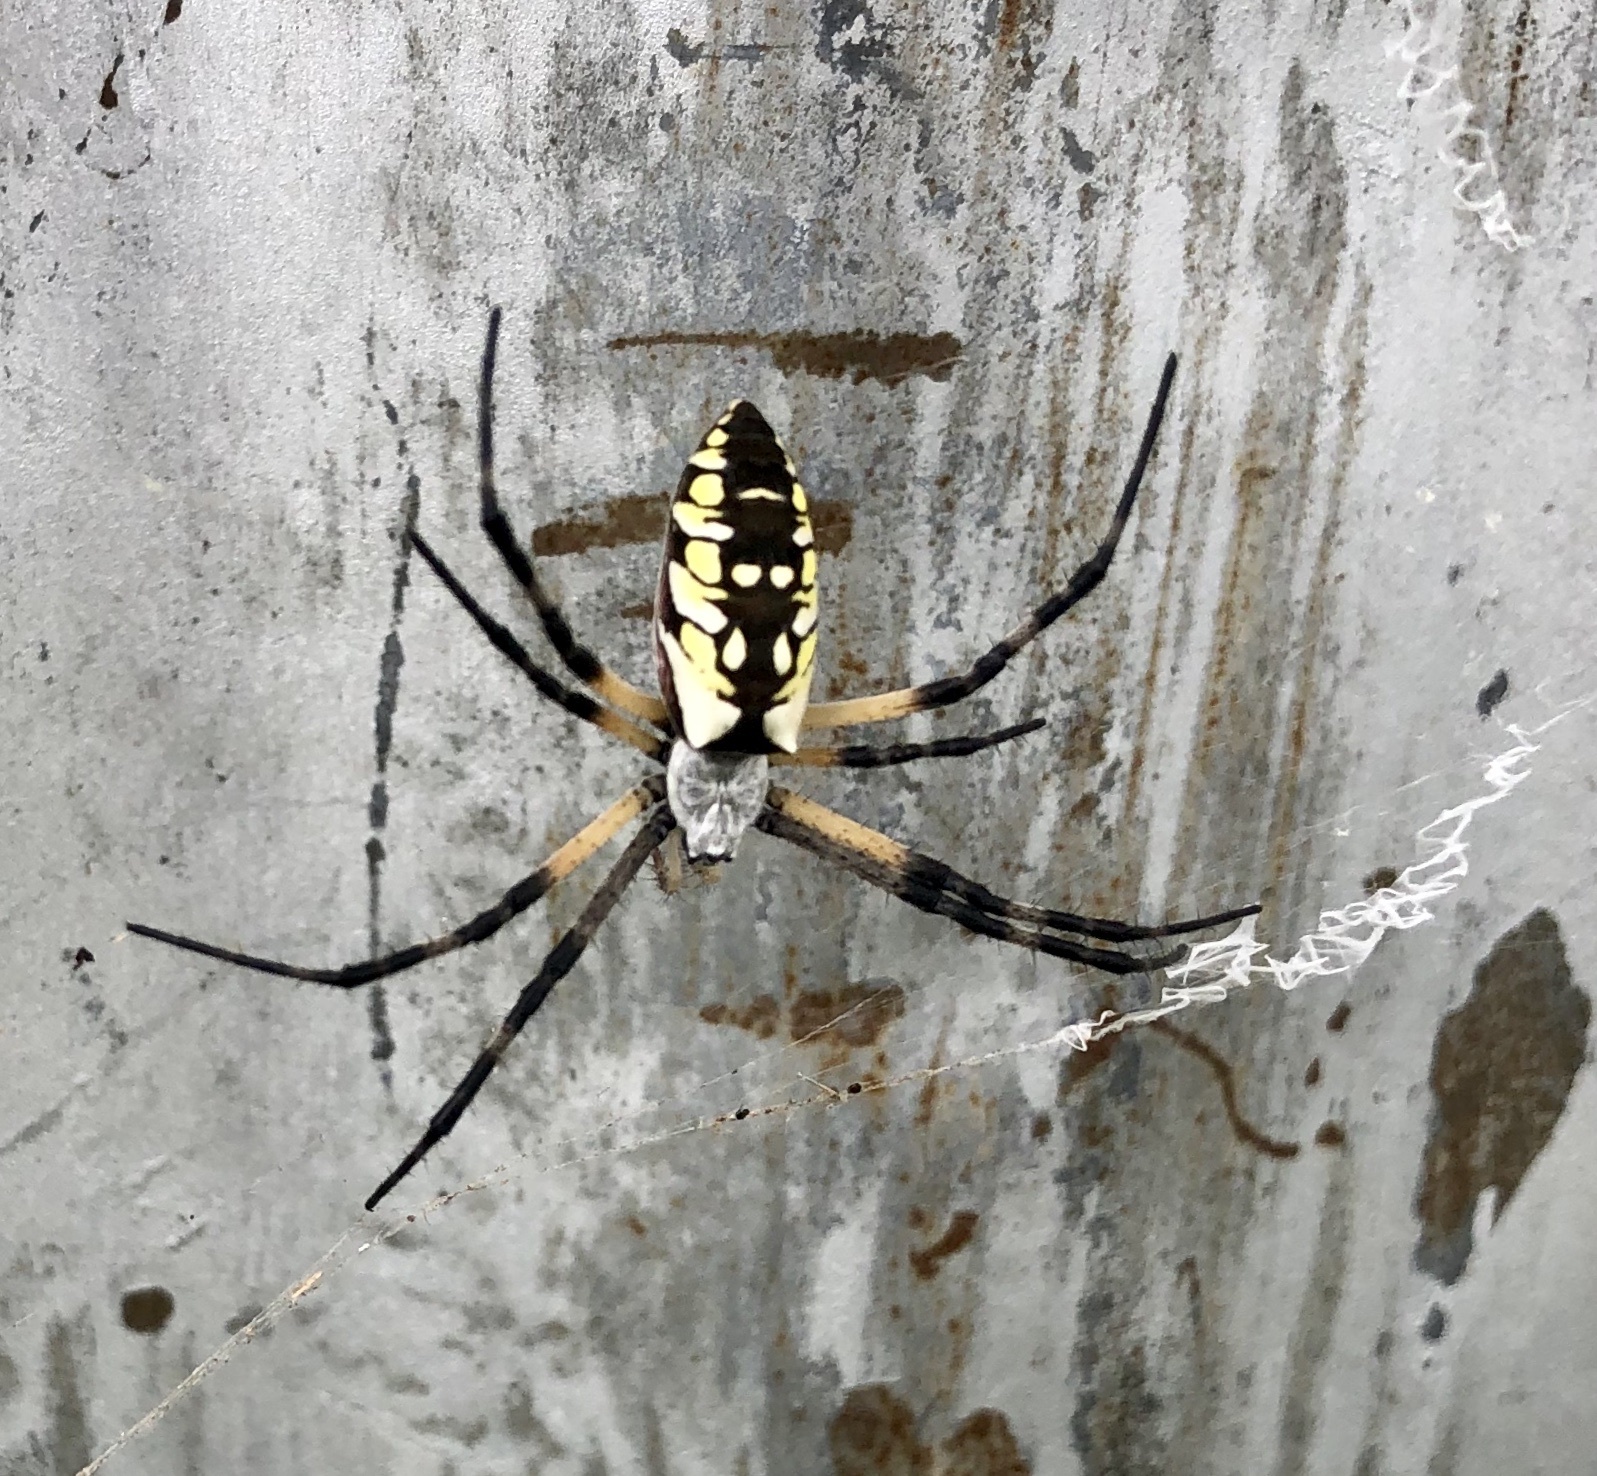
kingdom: Animalia
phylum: Arthropoda
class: Arachnida
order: Araneae
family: Araneidae
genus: Argiope
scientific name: Argiope aurantia
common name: Orb weavers
